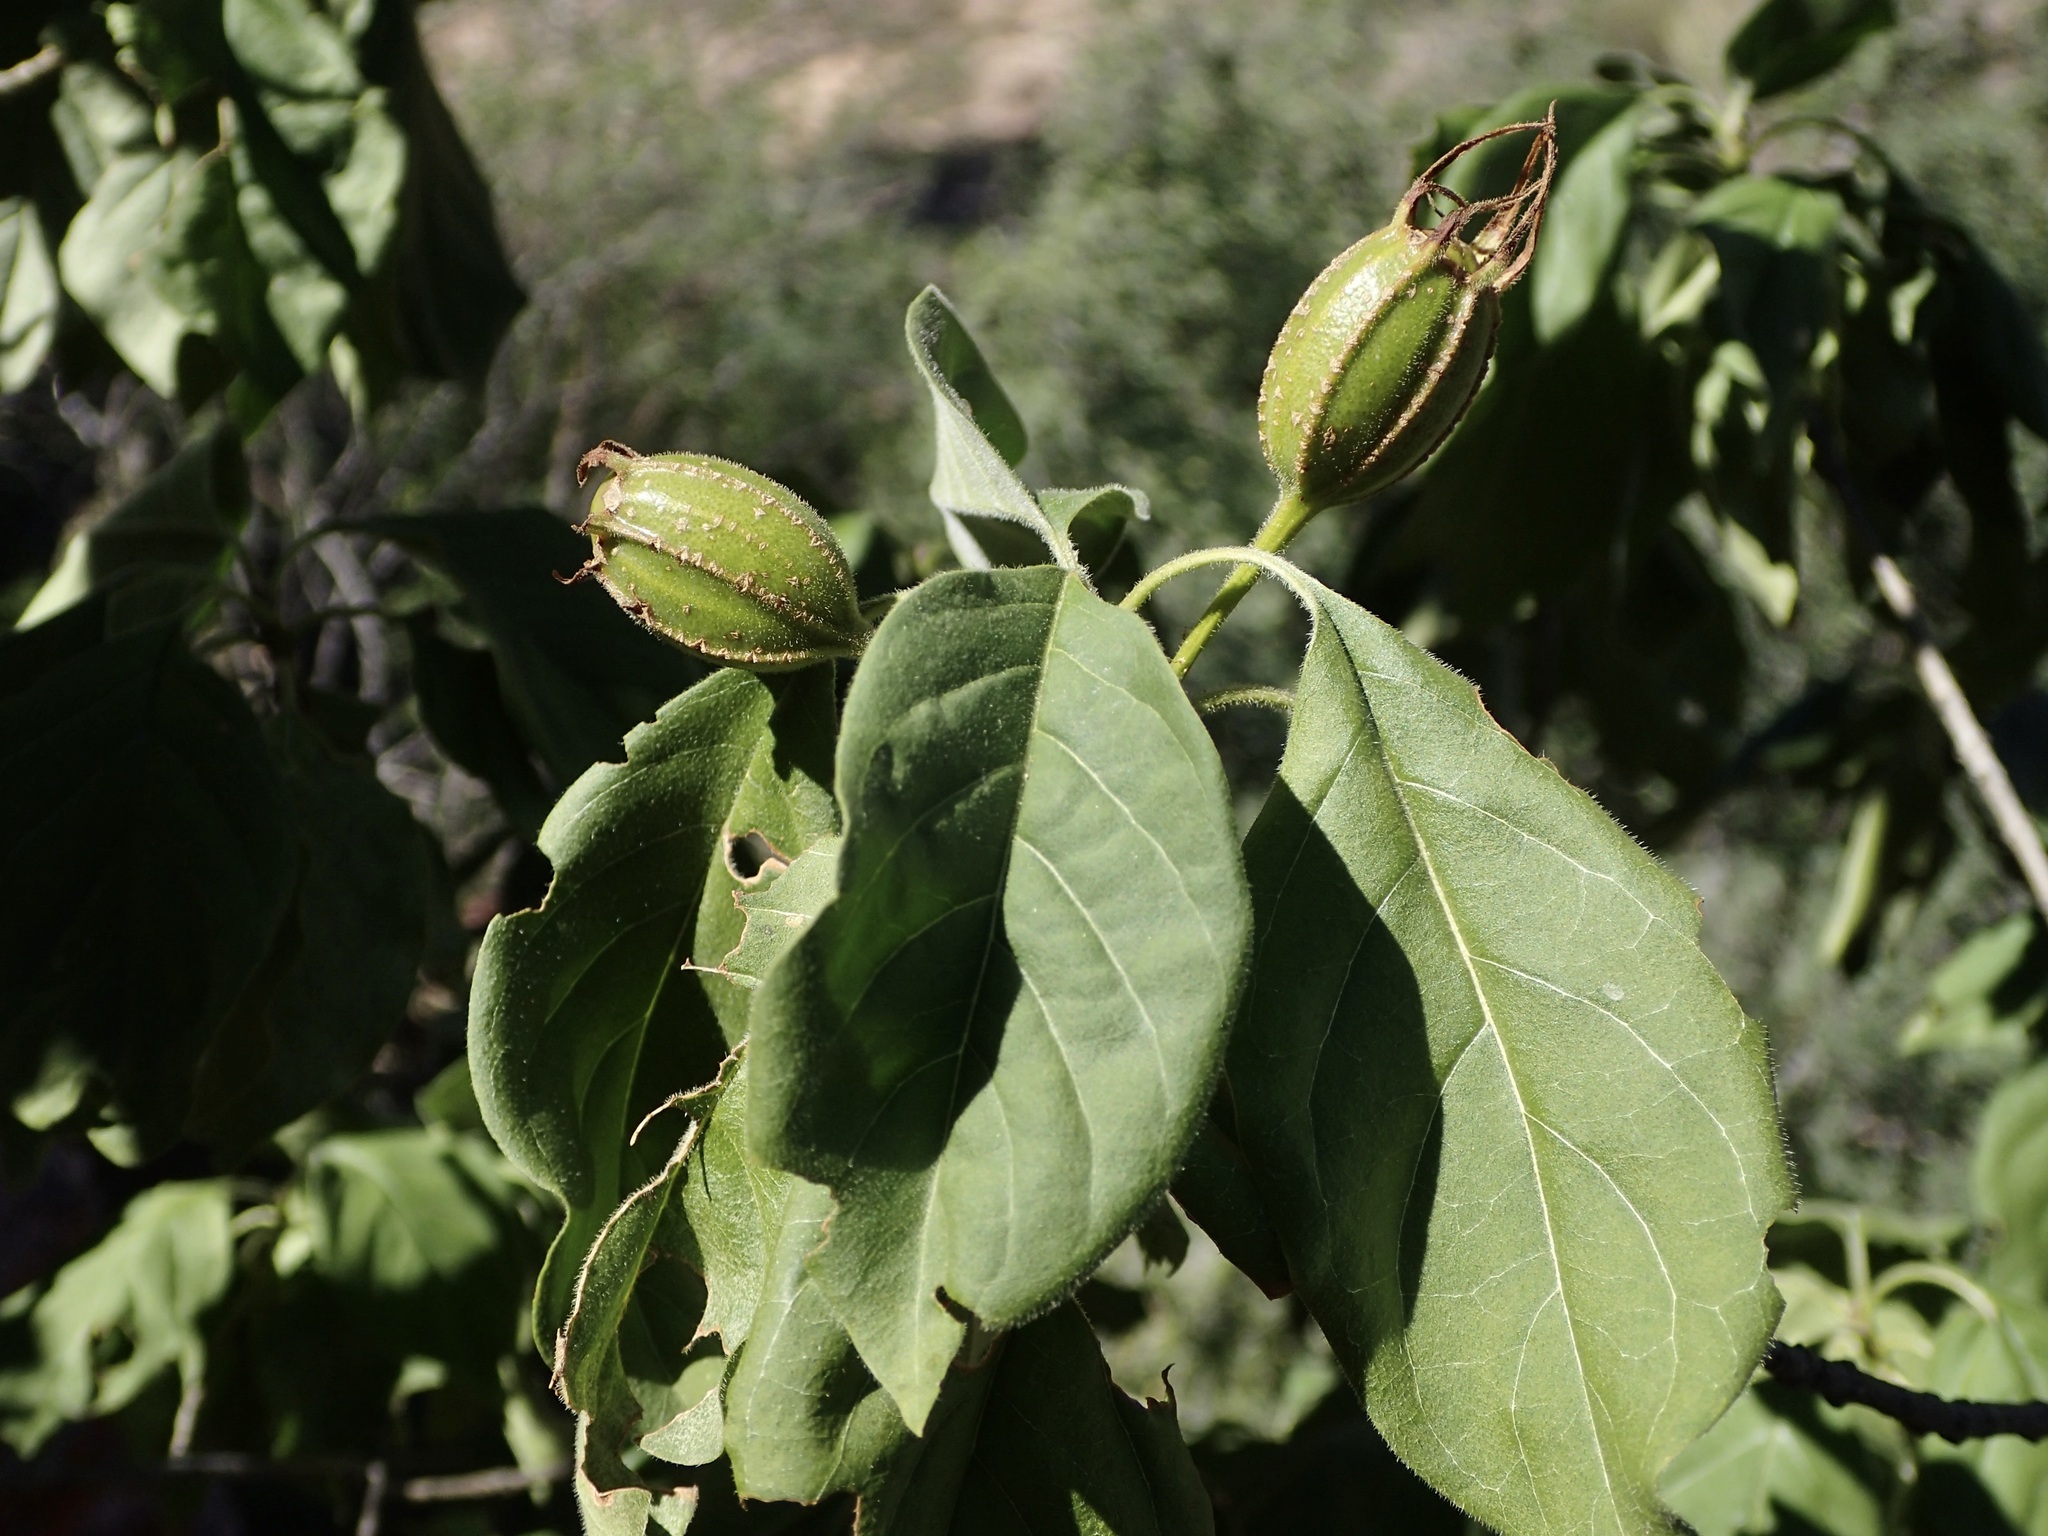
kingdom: Plantae
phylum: Tracheophyta
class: Magnoliopsida
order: Gentianales
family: Rubiaceae
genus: Hintonia
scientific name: Hintonia latiflora
